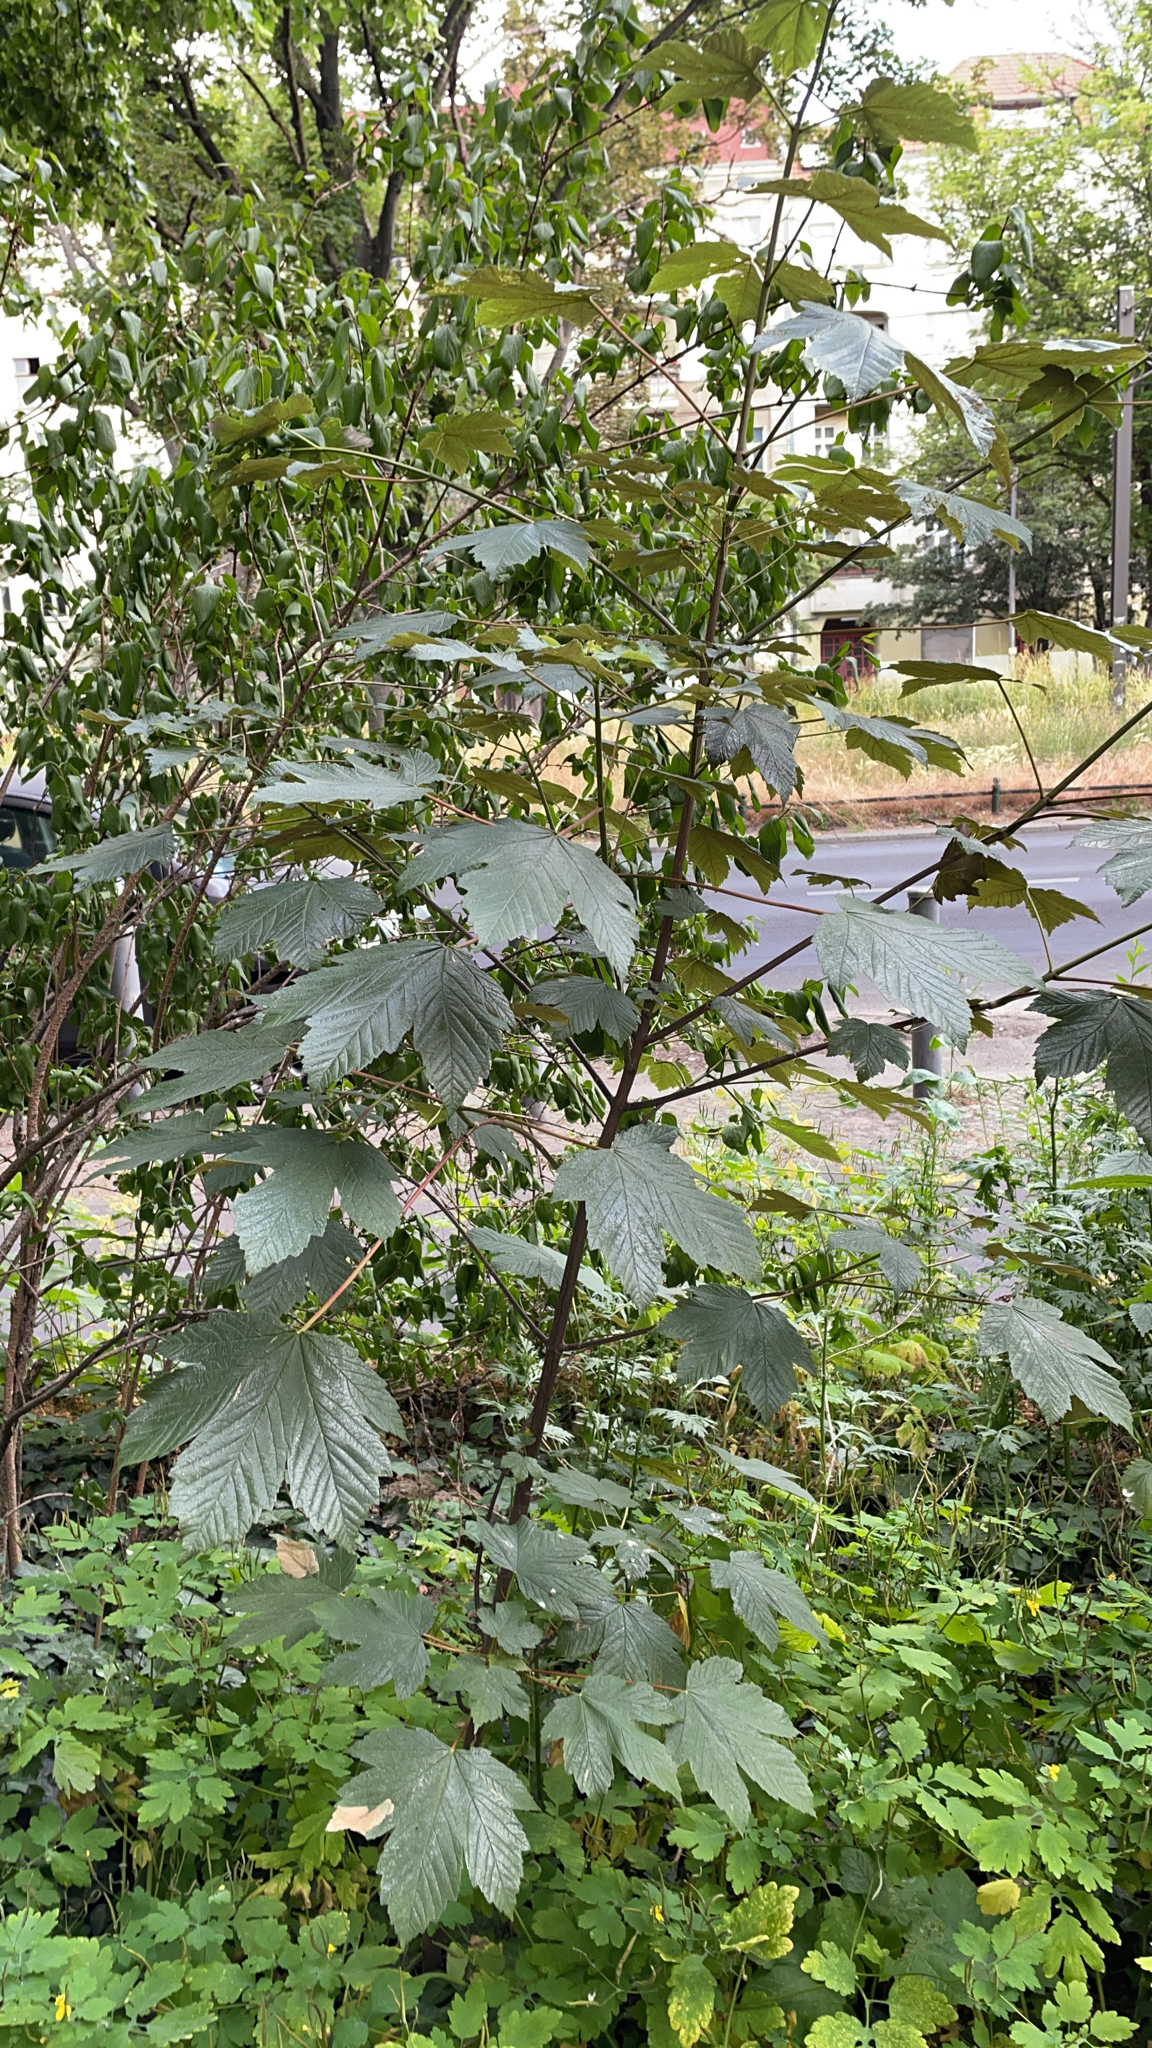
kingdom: Plantae
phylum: Tracheophyta
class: Magnoliopsida
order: Sapindales
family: Sapindaceae
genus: Acer
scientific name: Acer pseudoplatanus
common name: Sycamore
